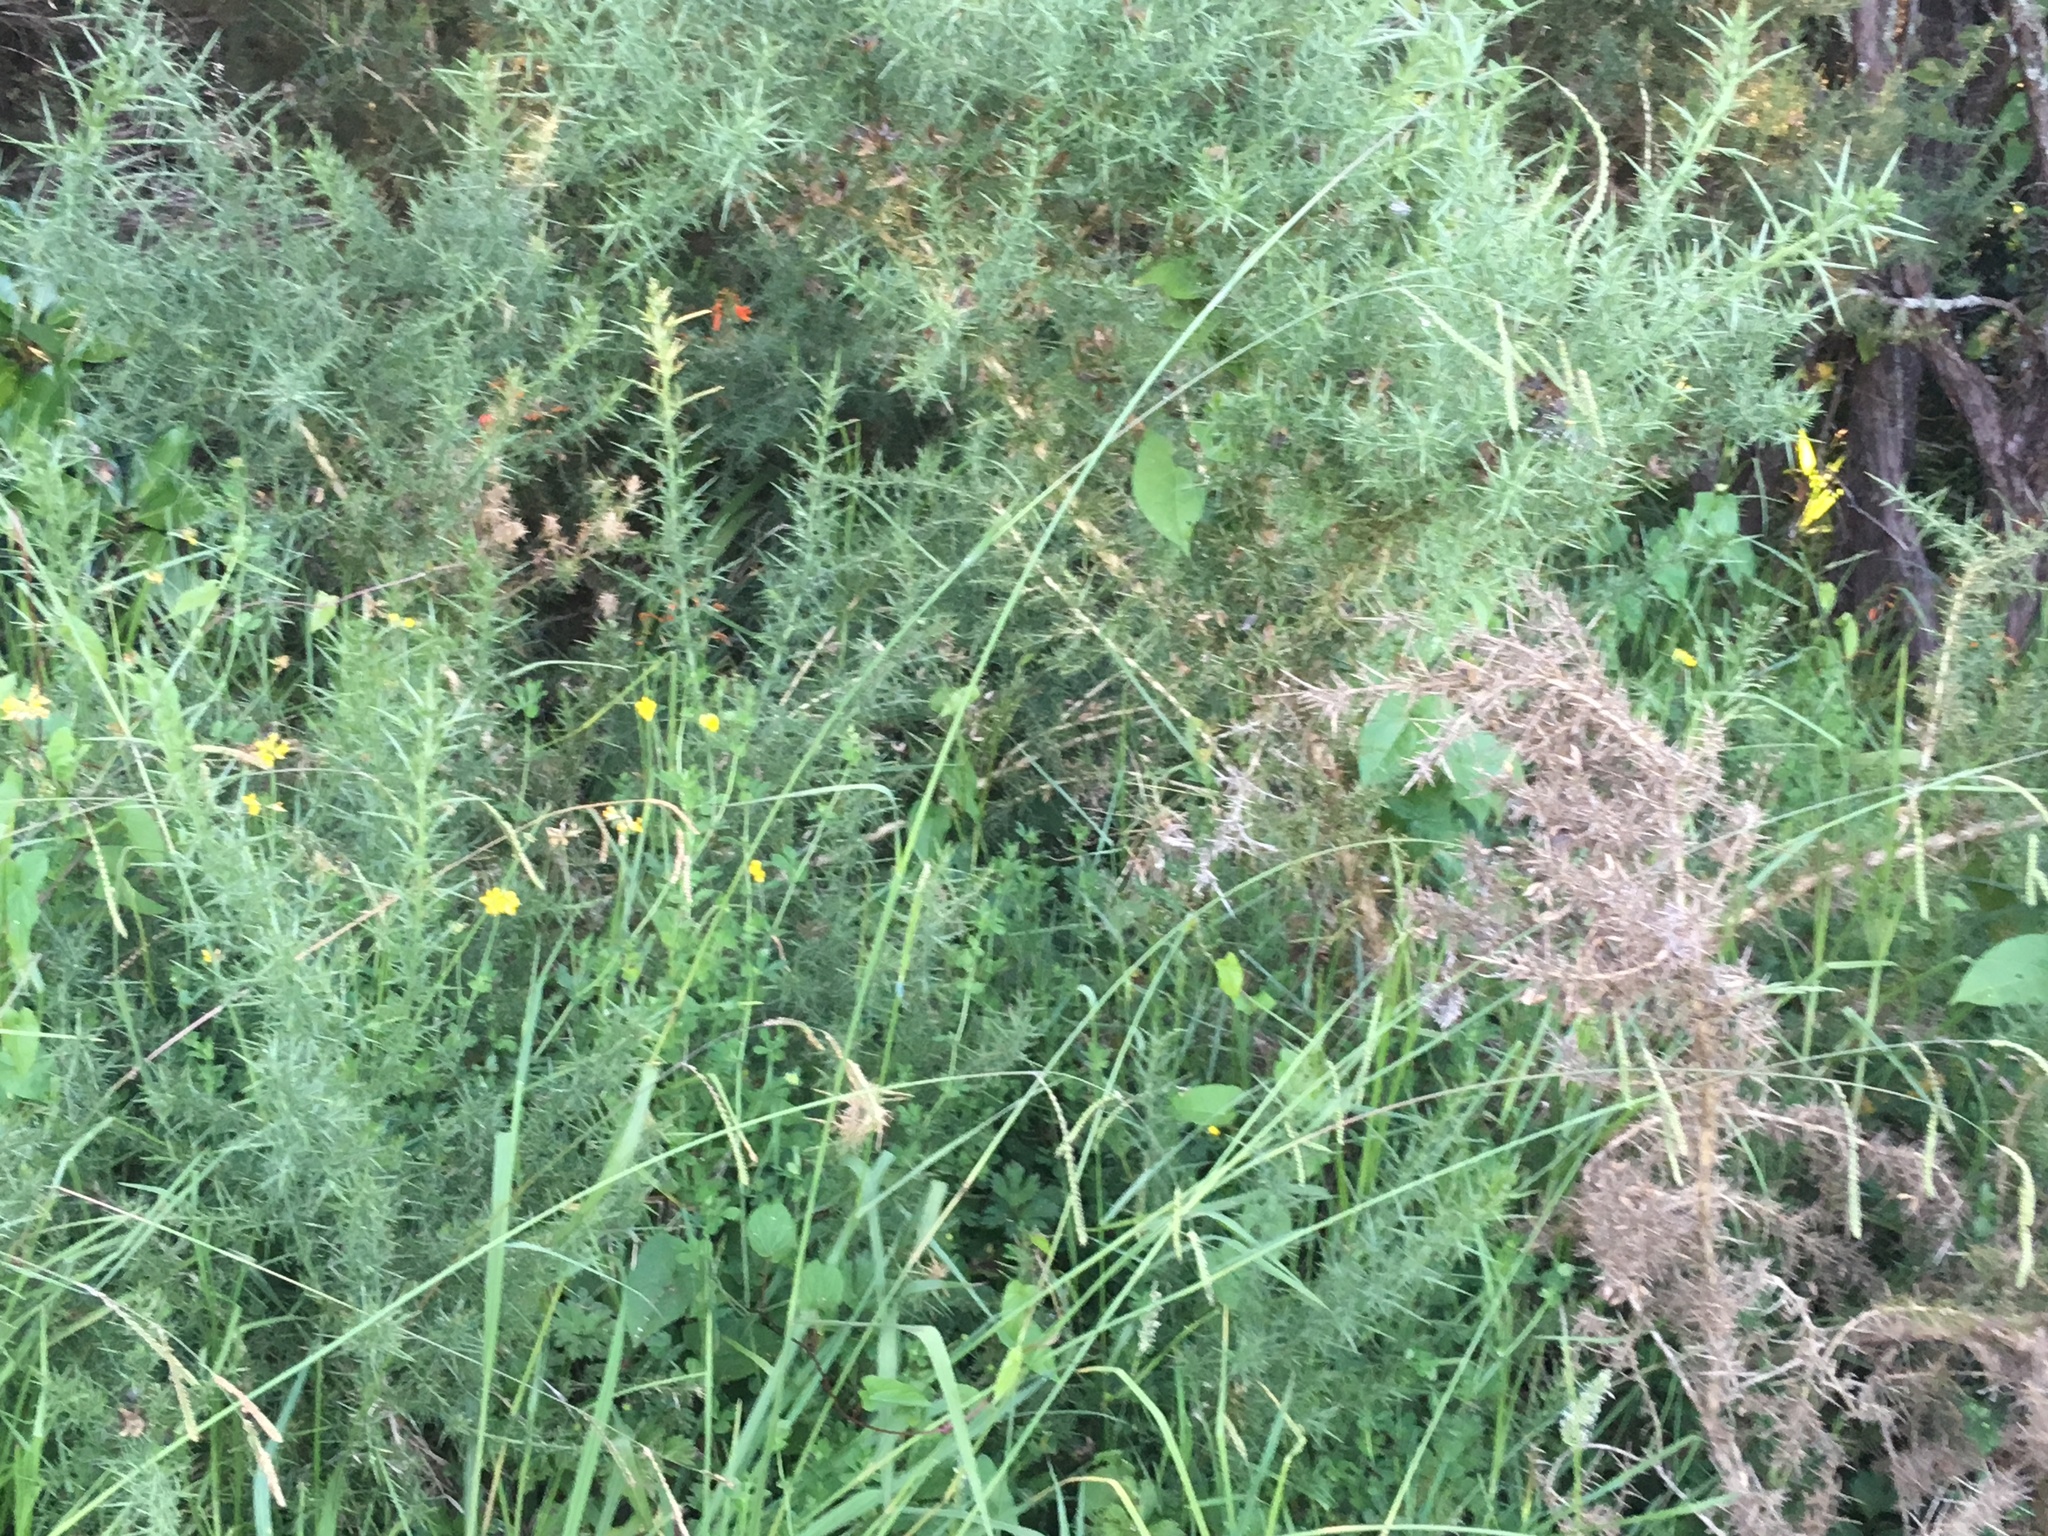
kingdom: Plantae
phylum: Tracheophyta
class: Magnoliopsida
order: Fabales
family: Fabaceae
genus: Ulex
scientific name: Ulex europaeus
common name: Common gorse
